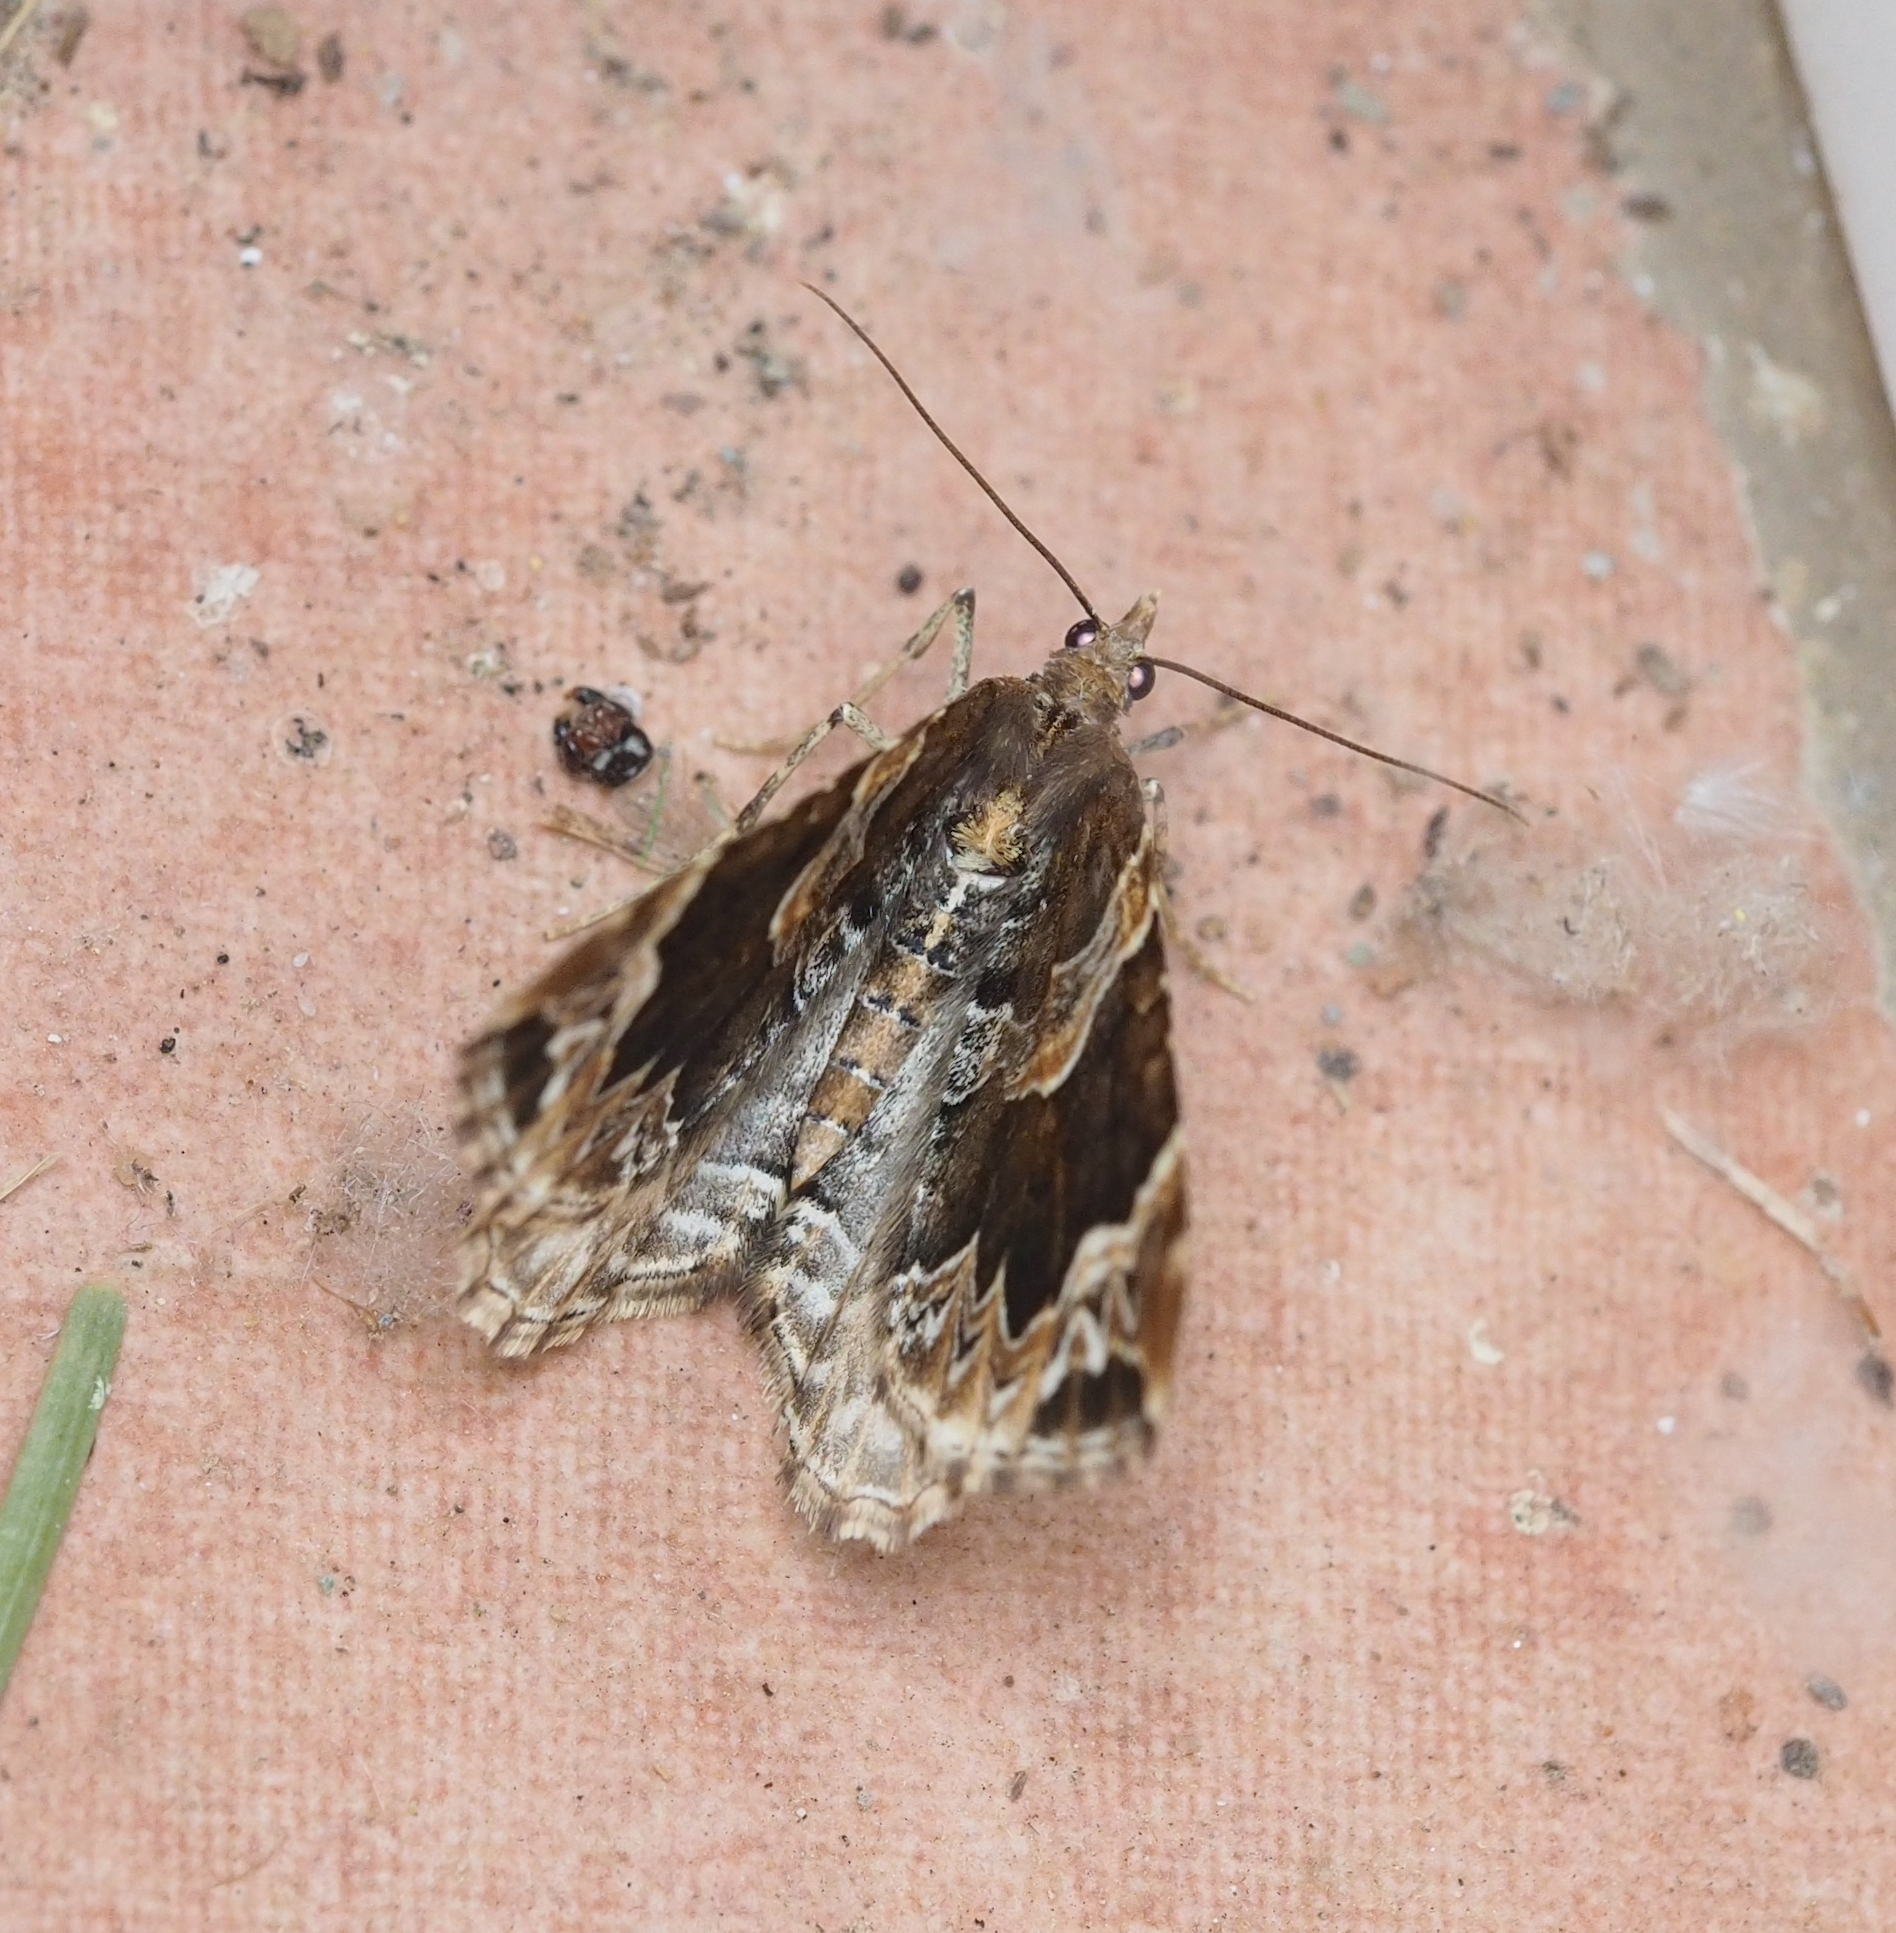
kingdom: Animalia
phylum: Arthropoda
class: Insecta
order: Lepidoptera
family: Geometridae
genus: Eulithis
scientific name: Eulithis prunata
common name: Phoenix
